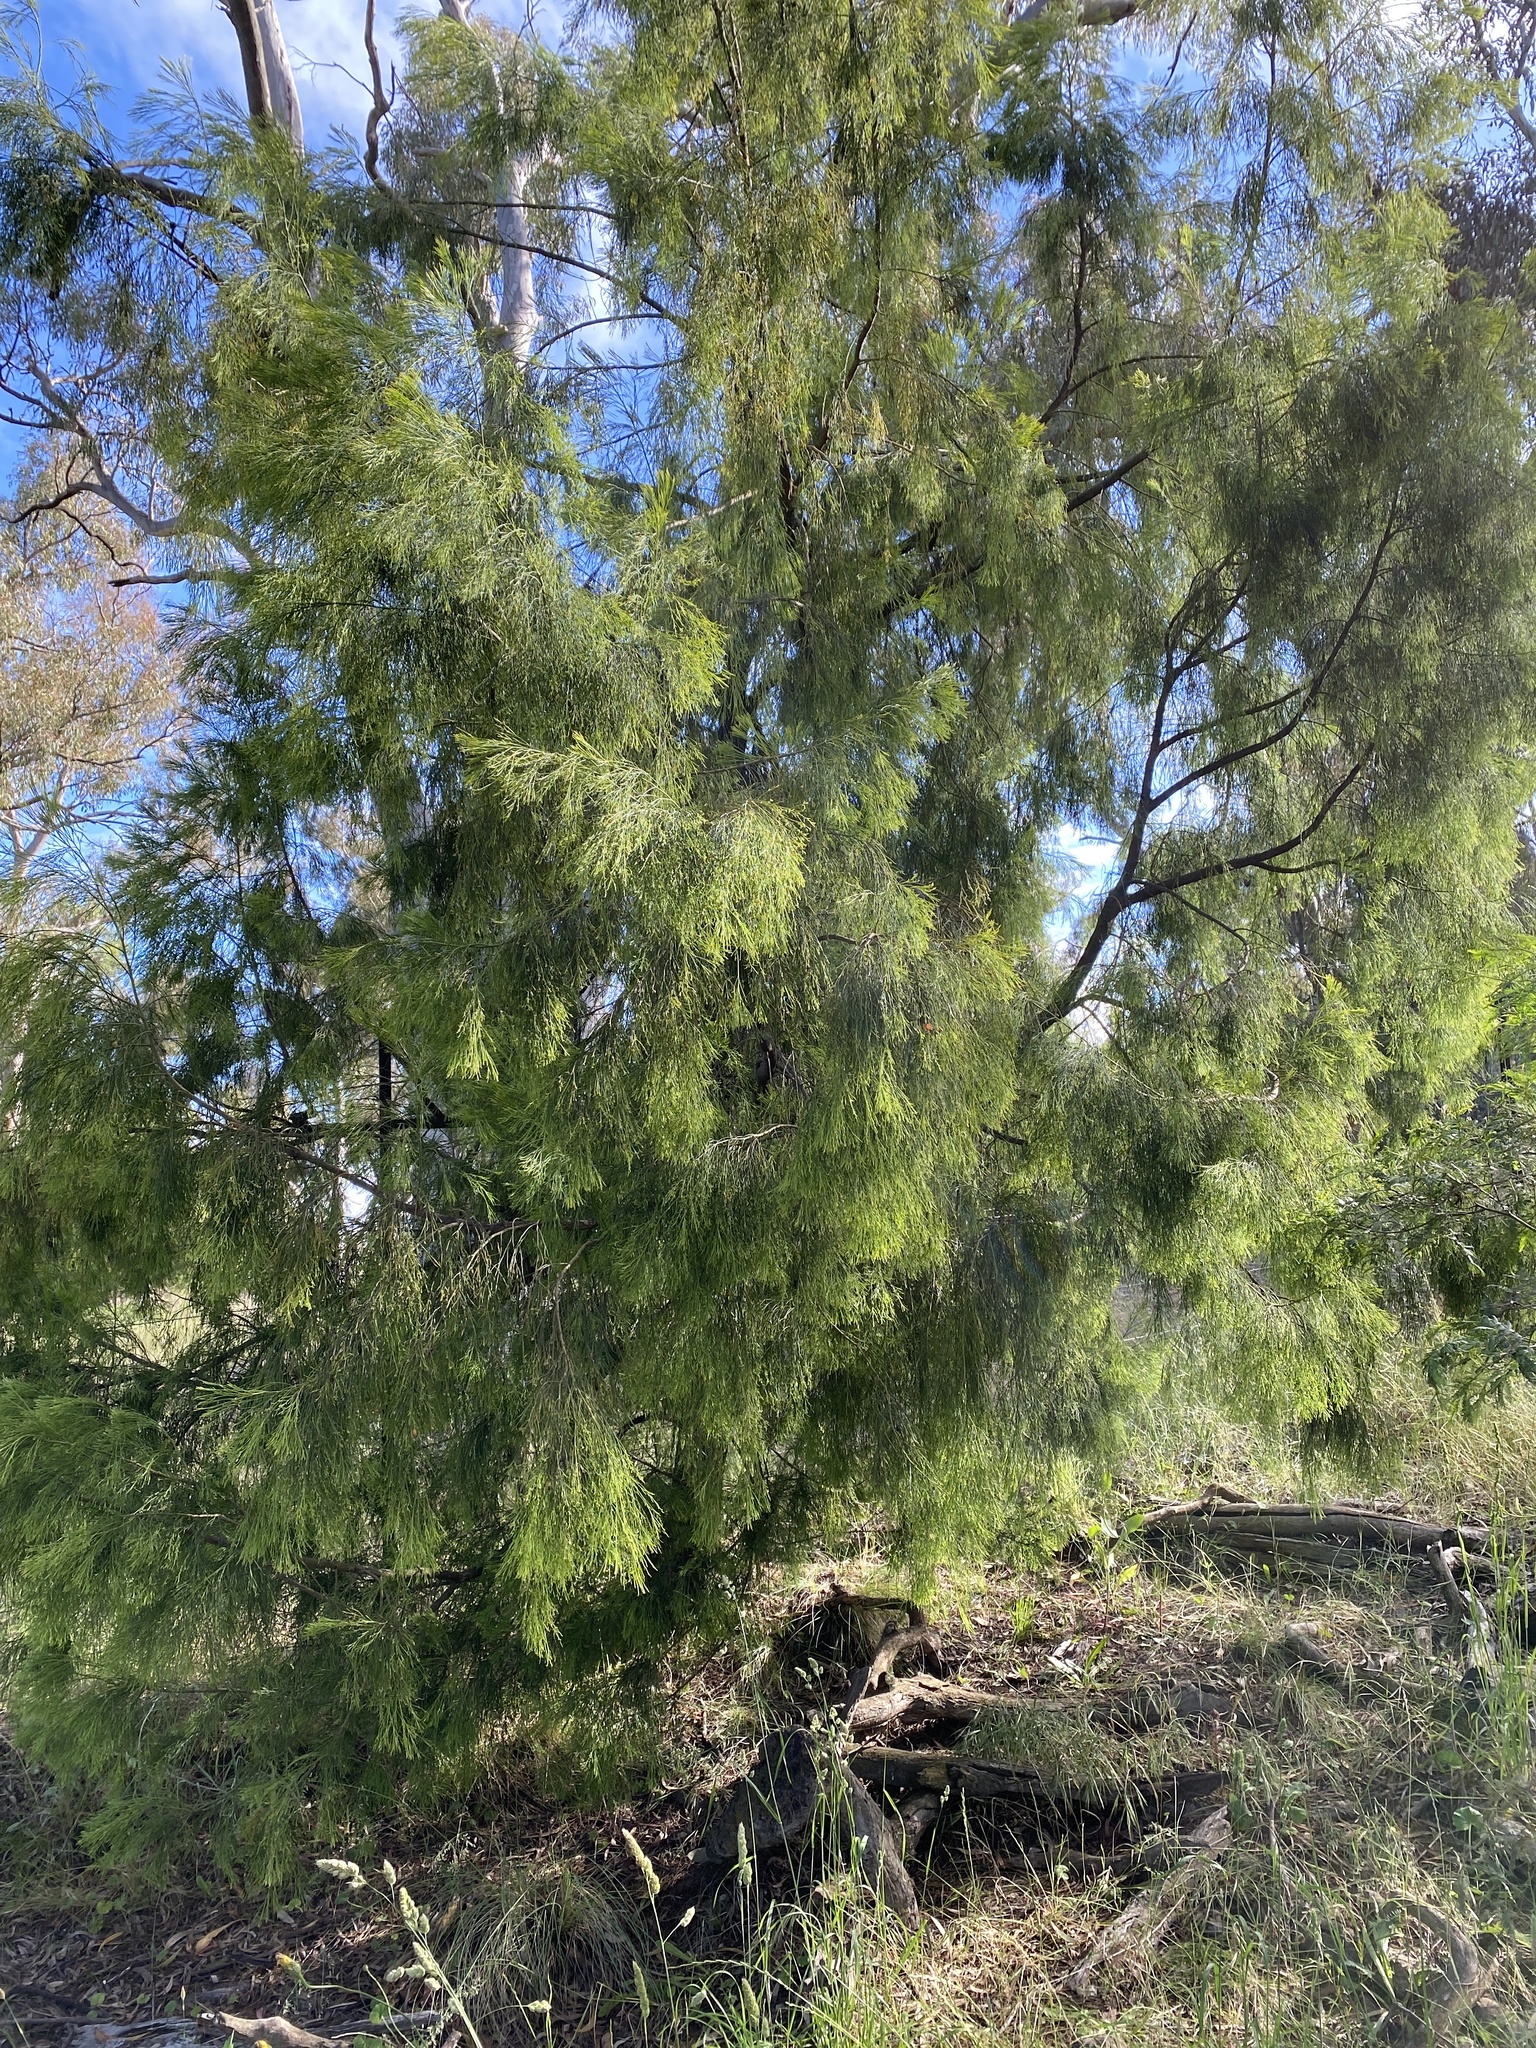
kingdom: Plantae
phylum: Tracheophyta
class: Magnoliopsida
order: Santalales
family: Santalaceae
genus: Exocarpos
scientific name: Exocarpos cupressiformis
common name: Cherry ballart
